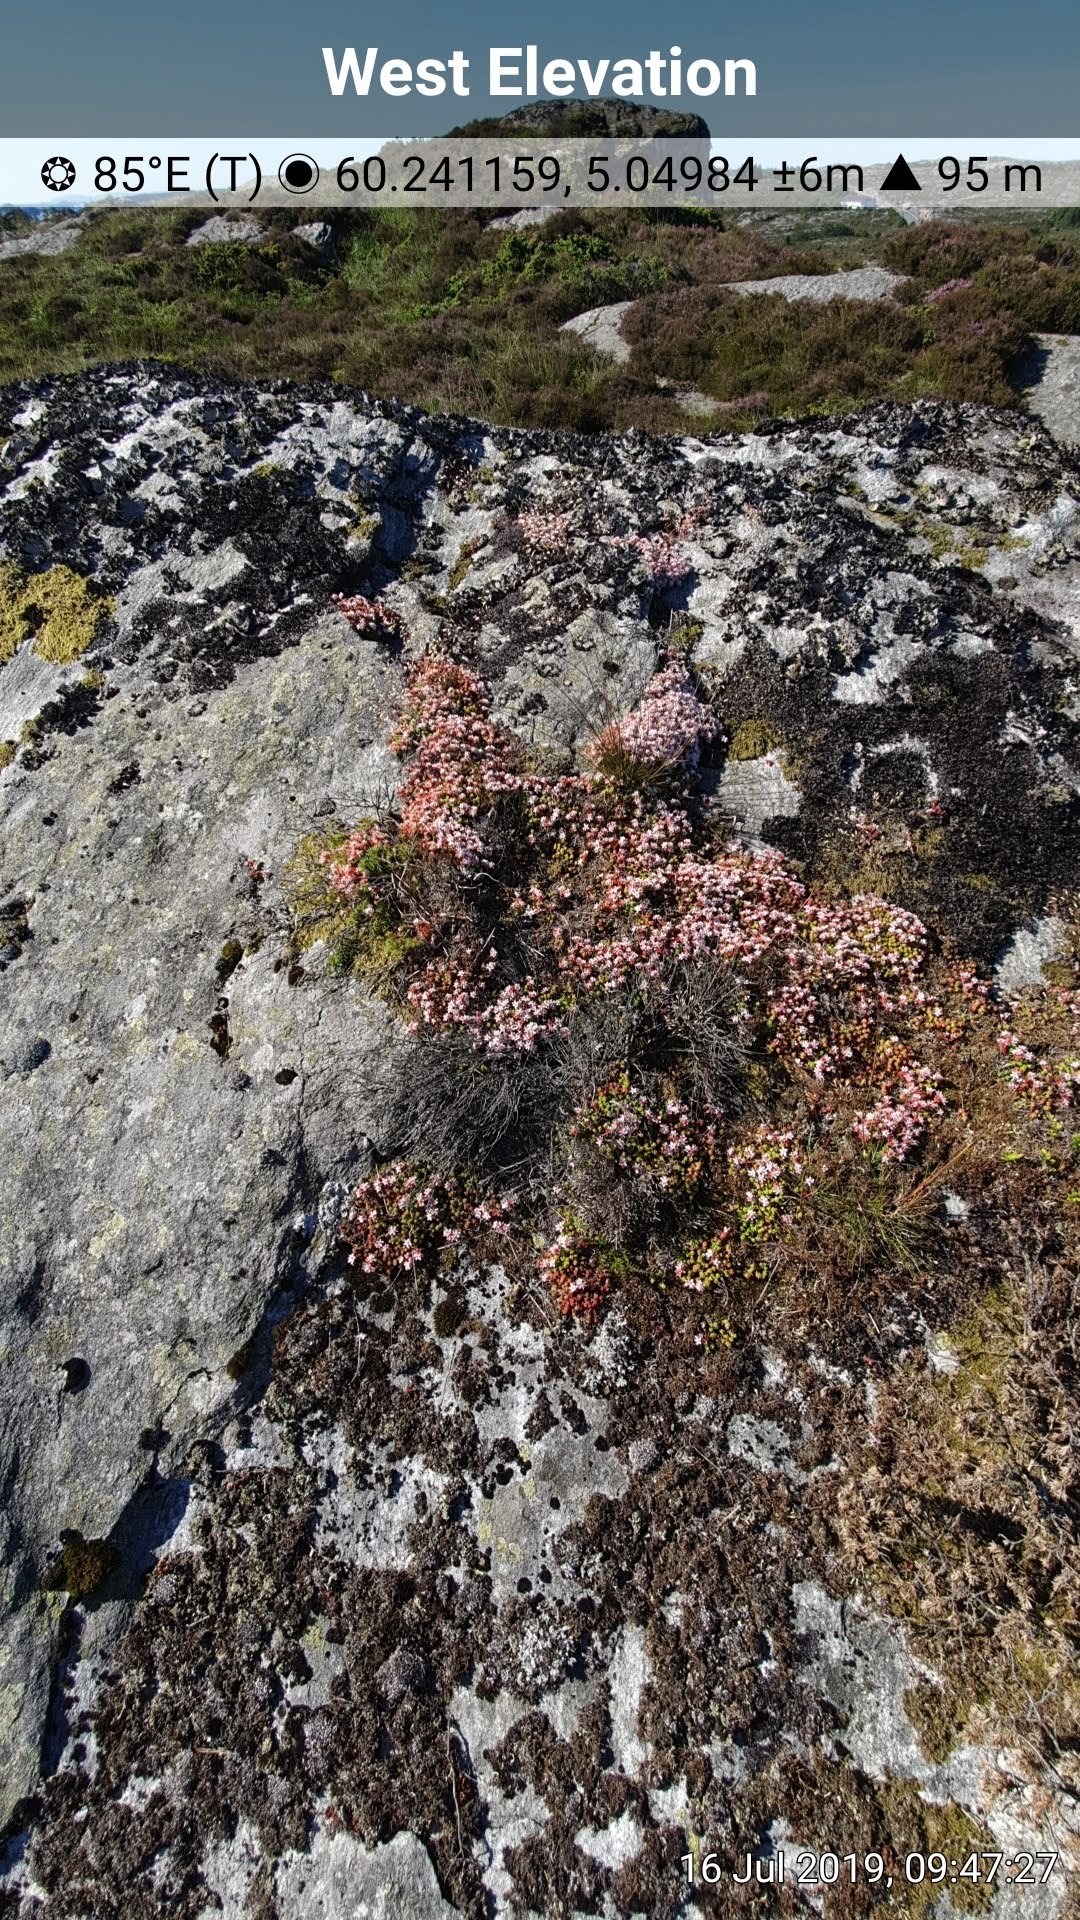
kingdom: Plantae
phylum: Tracheophyta
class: Magnoliopsida
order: Saxifragales
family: Crassulaceae
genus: Sedum
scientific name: Sedum anglicum
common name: English stonecrop
